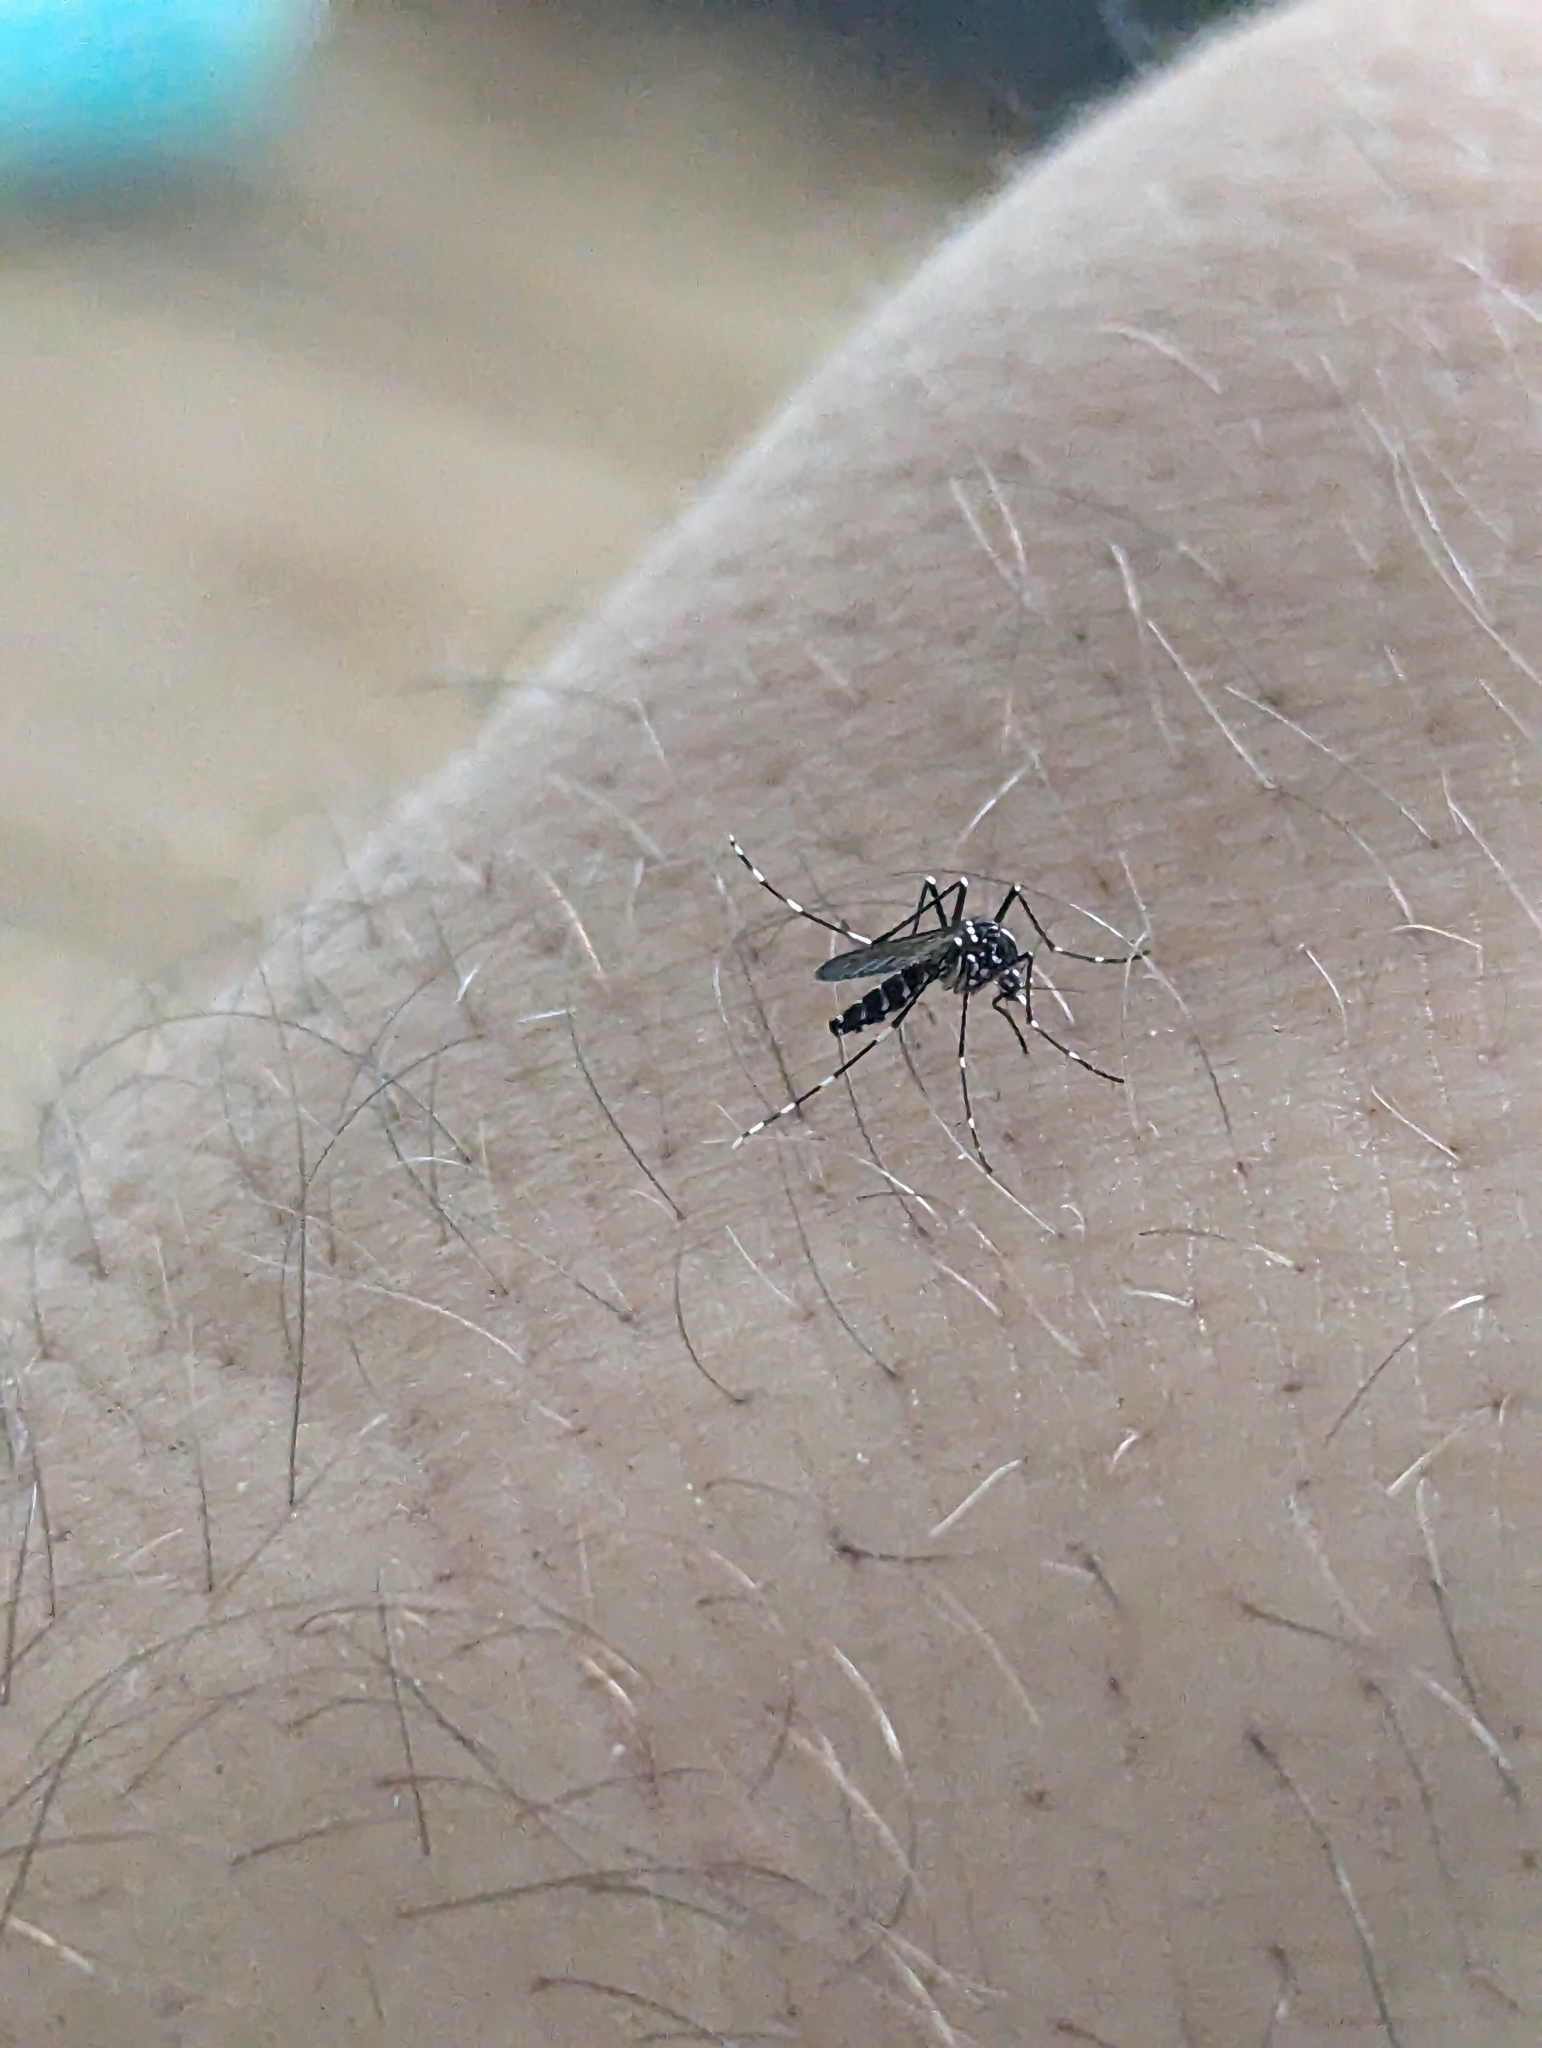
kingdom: Animalia
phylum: Arthropoda
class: Insecta
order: Diptera
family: Culicidae
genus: Aedes
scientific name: Aedes albopictus
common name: Tiger mosquito
